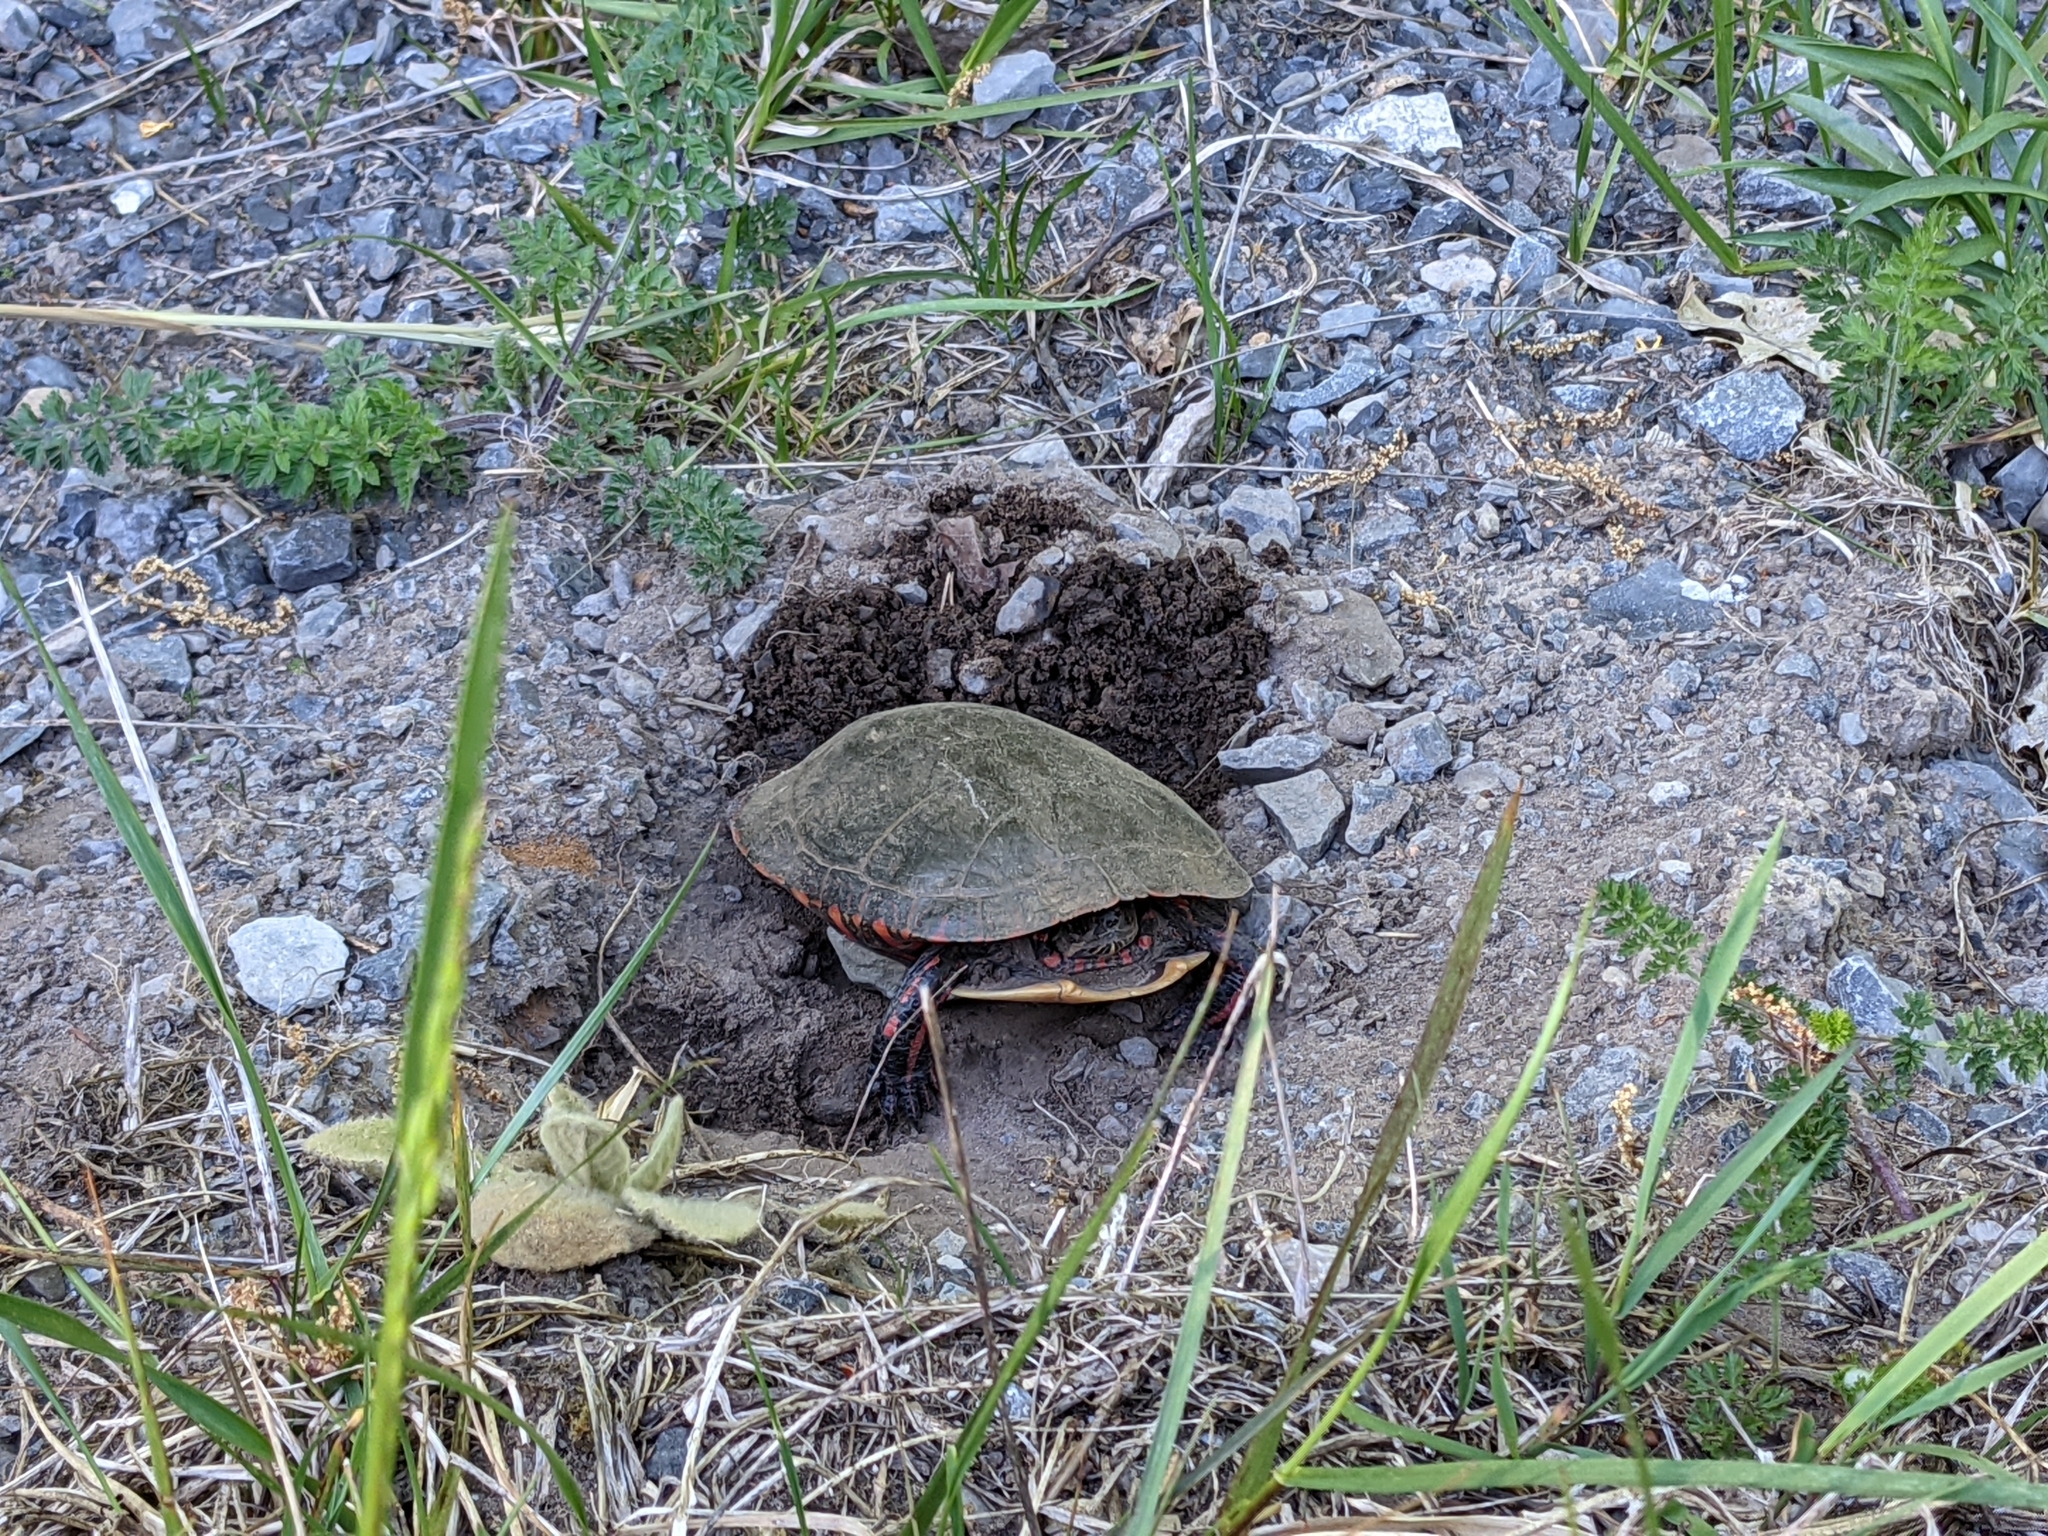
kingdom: Animalia
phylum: Chordata
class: Testudines
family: Emydidae
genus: Chrysemys
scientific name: Chrysemys picta
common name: Painted turtle
